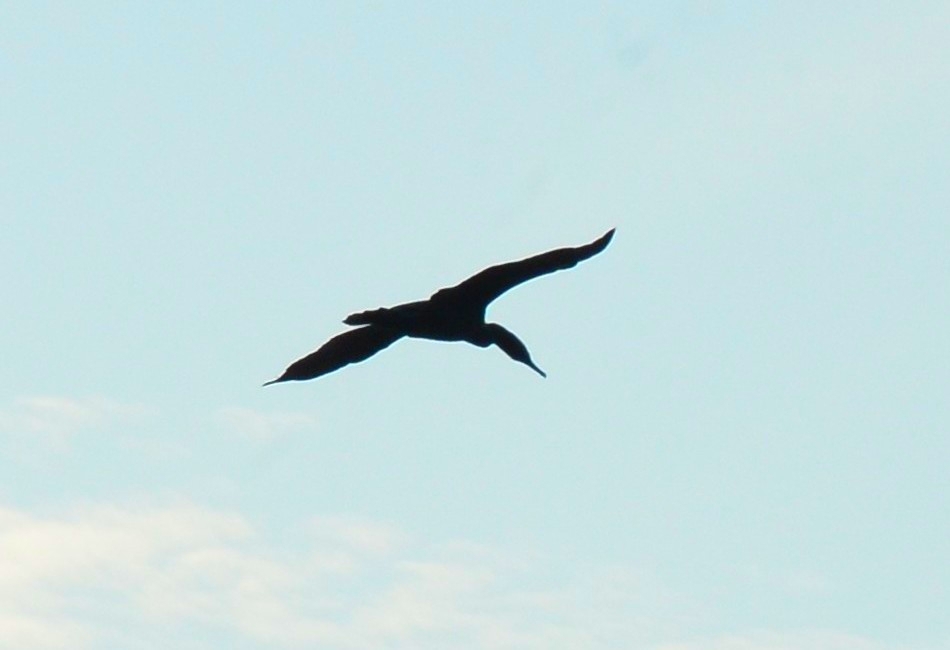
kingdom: Animalia
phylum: Chordata
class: Aves
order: Suliformes
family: Phalacrocoracidae
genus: Phalacrocorax
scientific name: Phalacrocorax fuscicollis
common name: Indian cormorant
